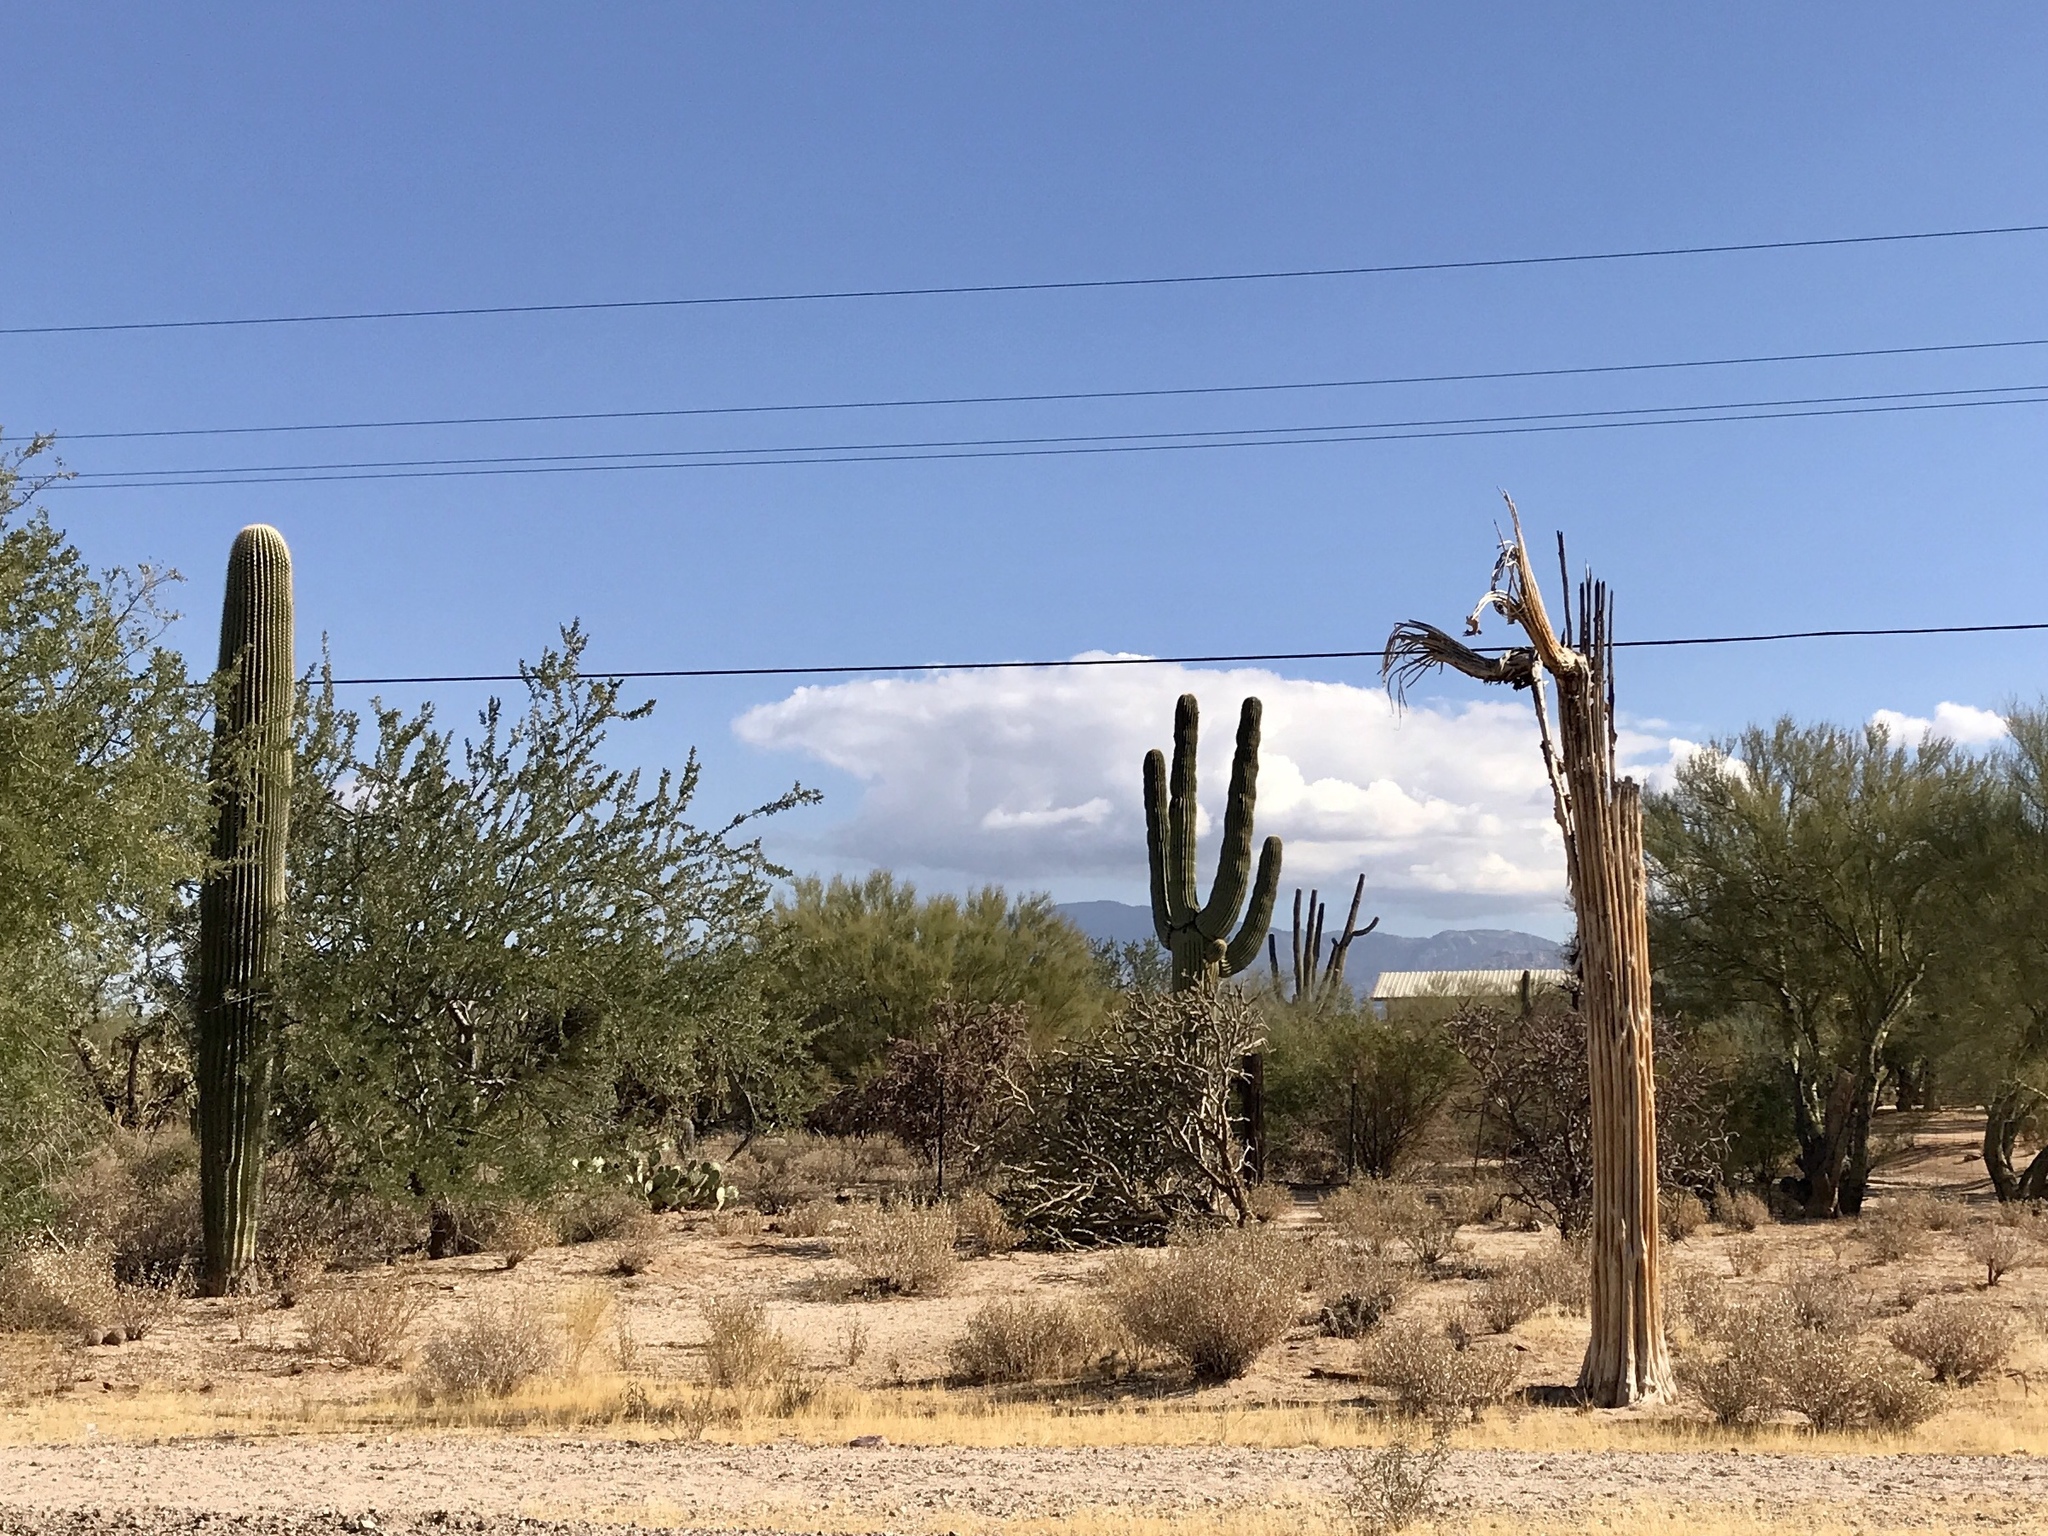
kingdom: Plantae
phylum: Tracheophyta
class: Magnoliopsida
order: Caryophyllales
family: Cactaceae
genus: Carnegiea
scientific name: Carnegiea gigantea
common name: Saguaro
